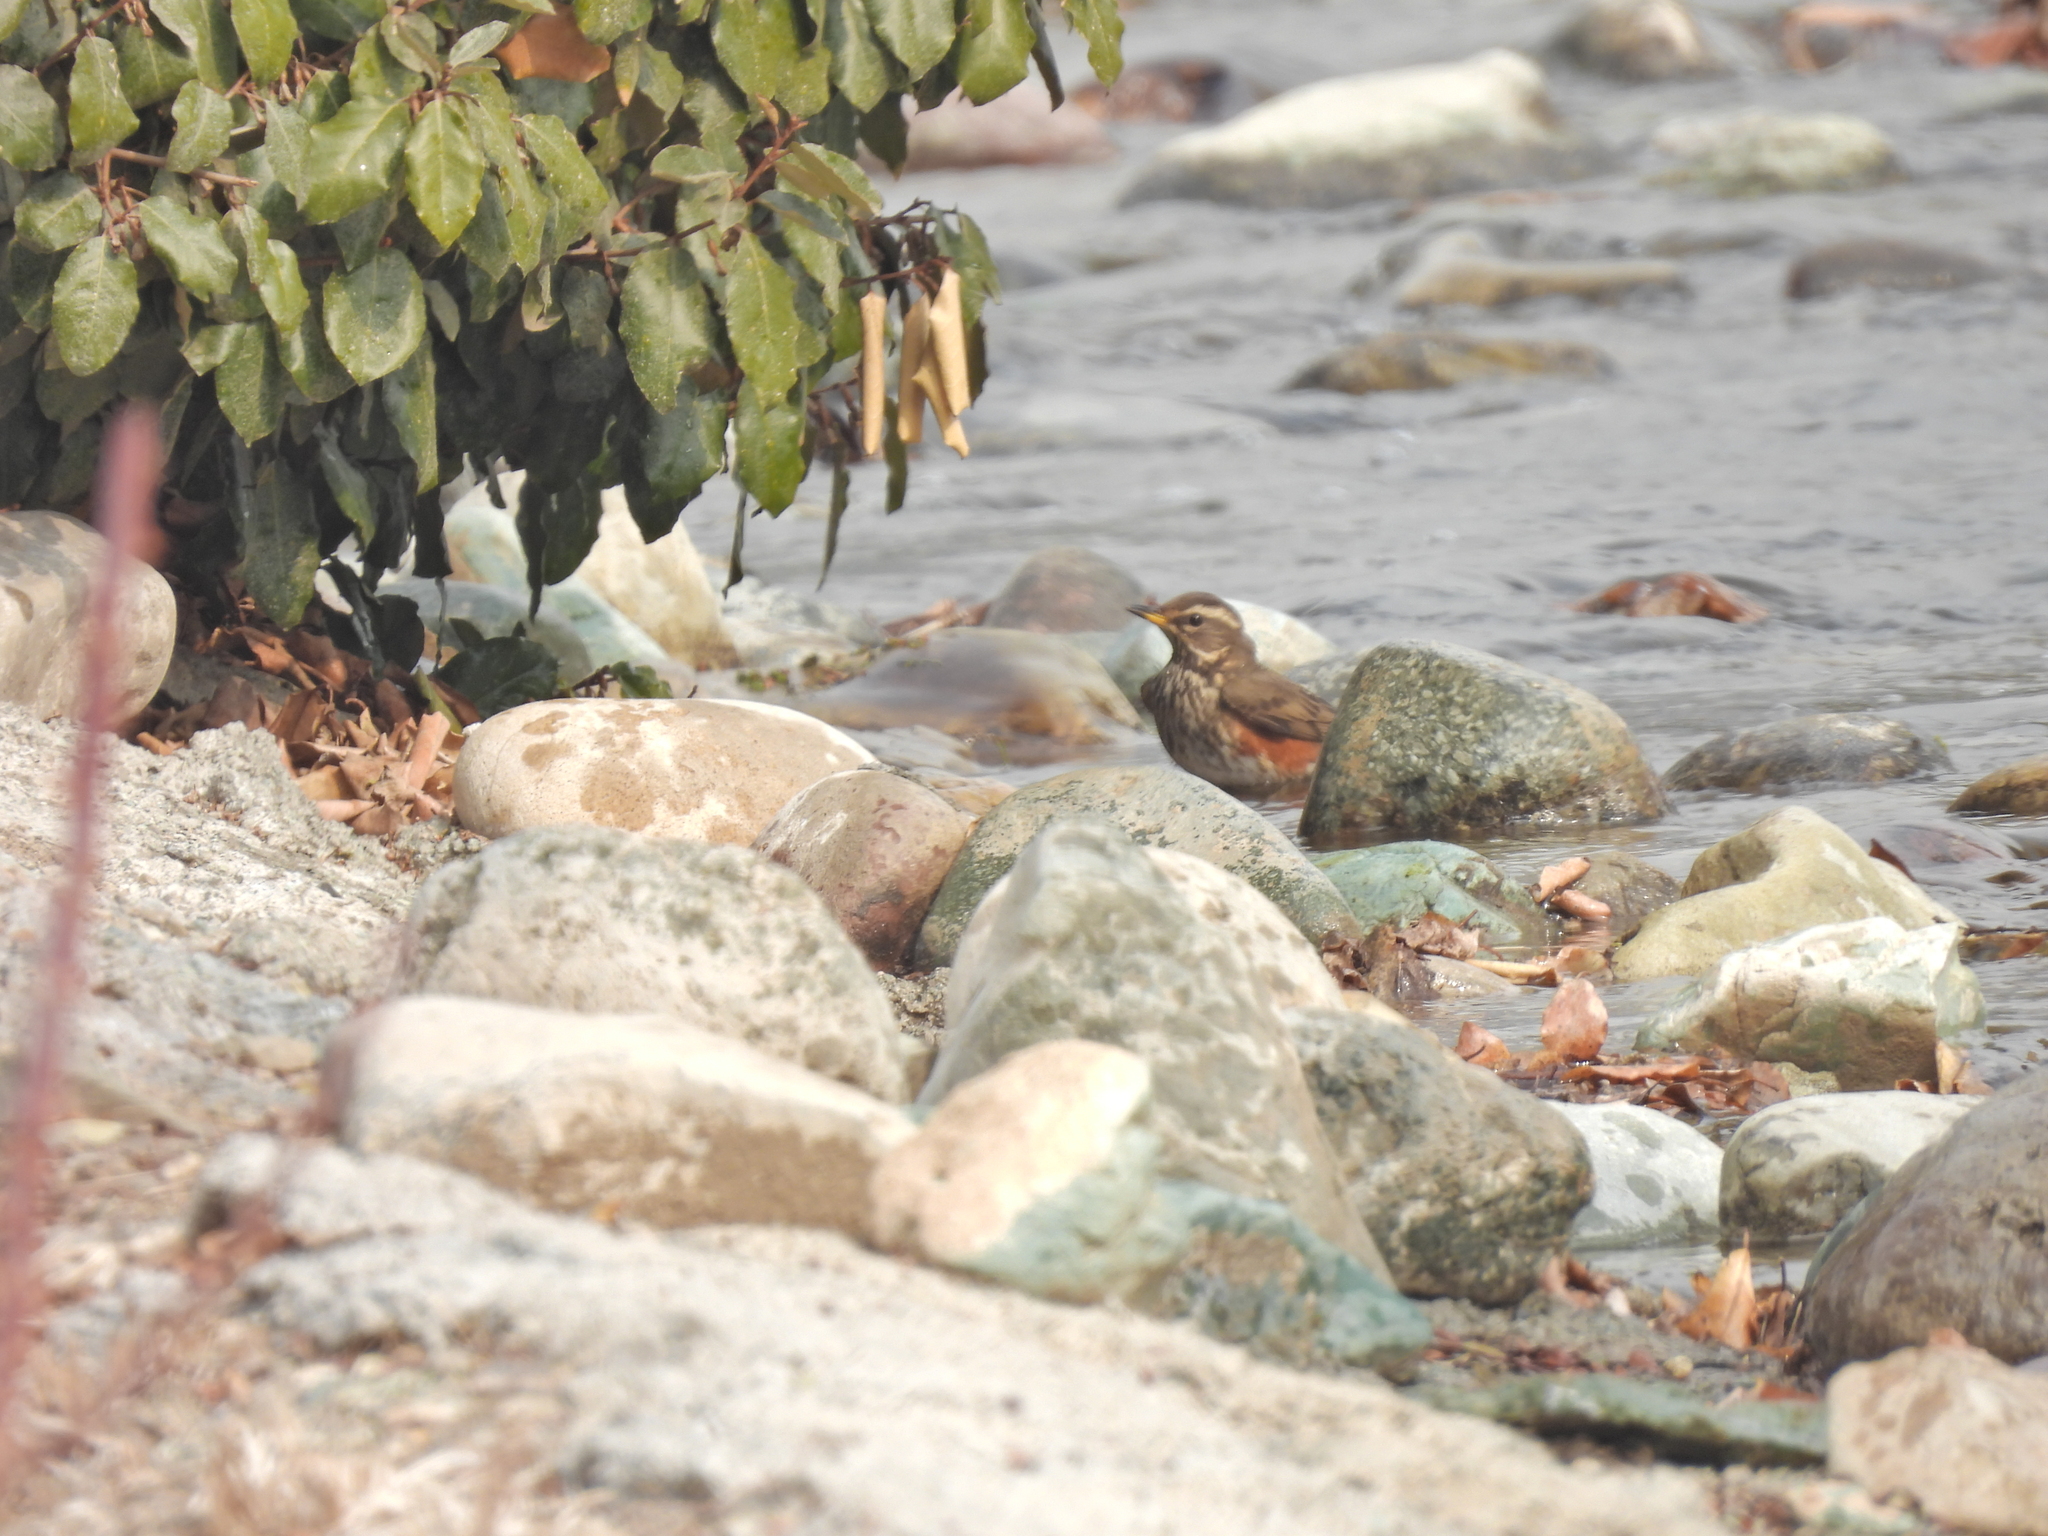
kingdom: Animalia
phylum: Chordata
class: Aves
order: Passeriformes
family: Turdidae
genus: Turdus
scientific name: Turdus iliacus
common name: Redwing
